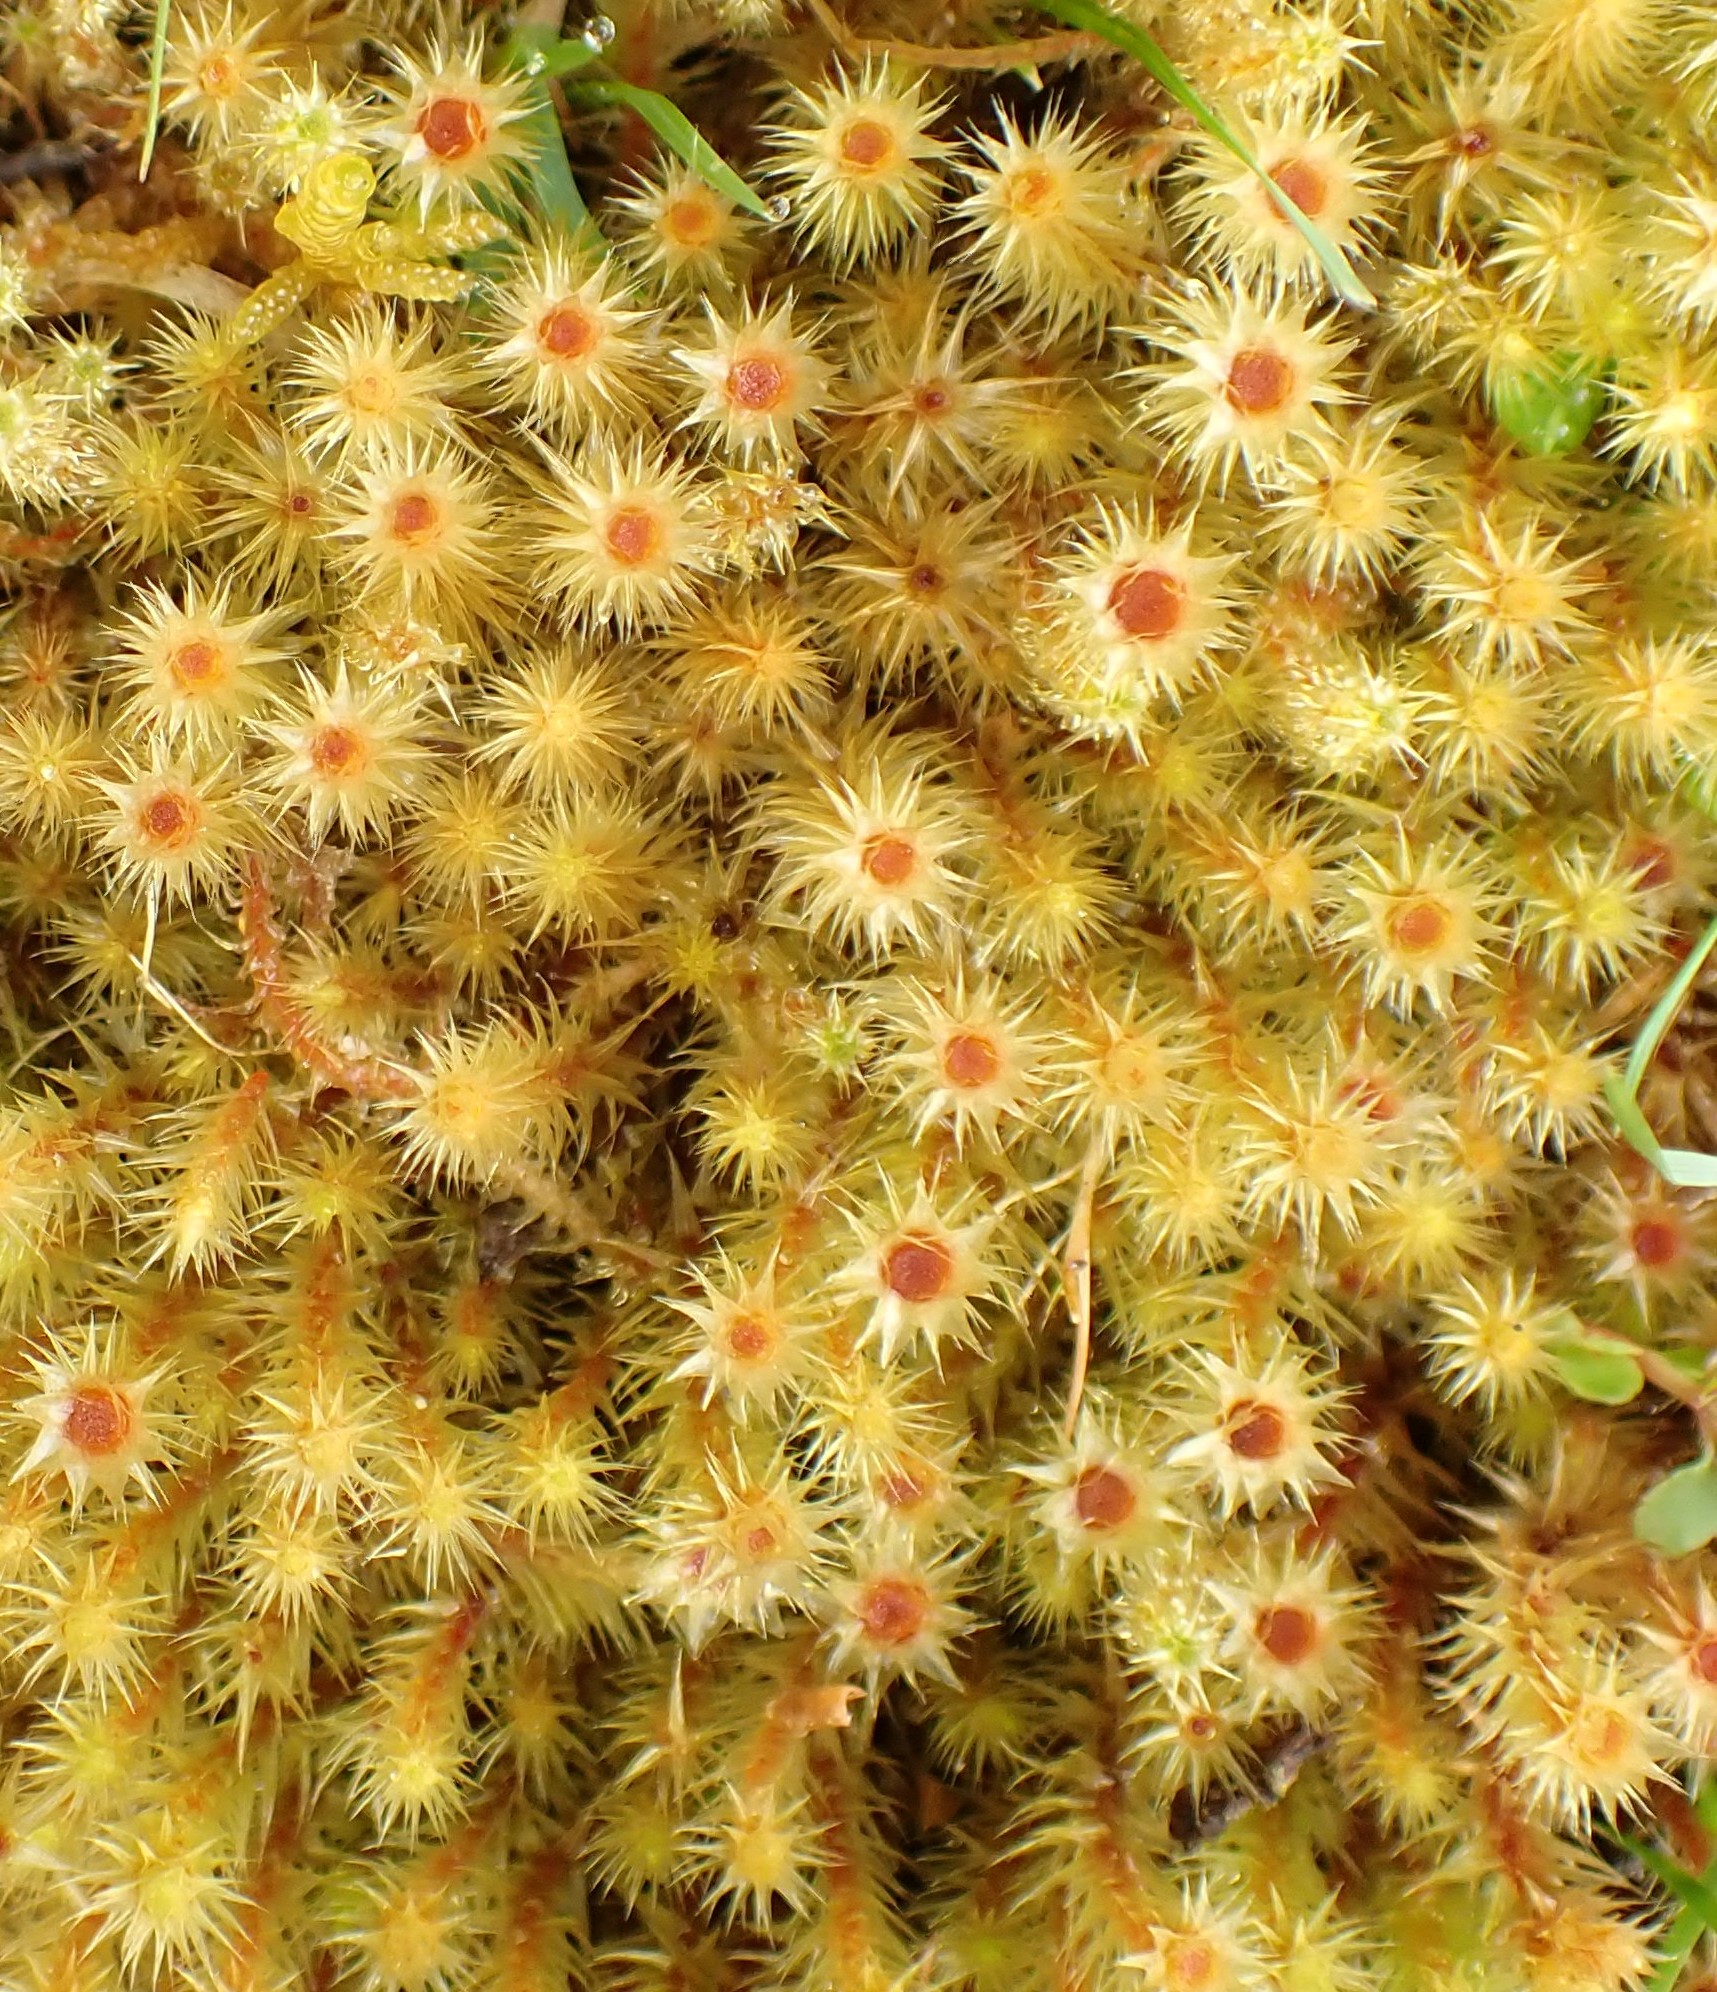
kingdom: Plantae
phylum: Bryophyta
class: Bryopsida
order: Bartramiales
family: Bartramiaceae
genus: Breutelia
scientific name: Breutelia affinis
